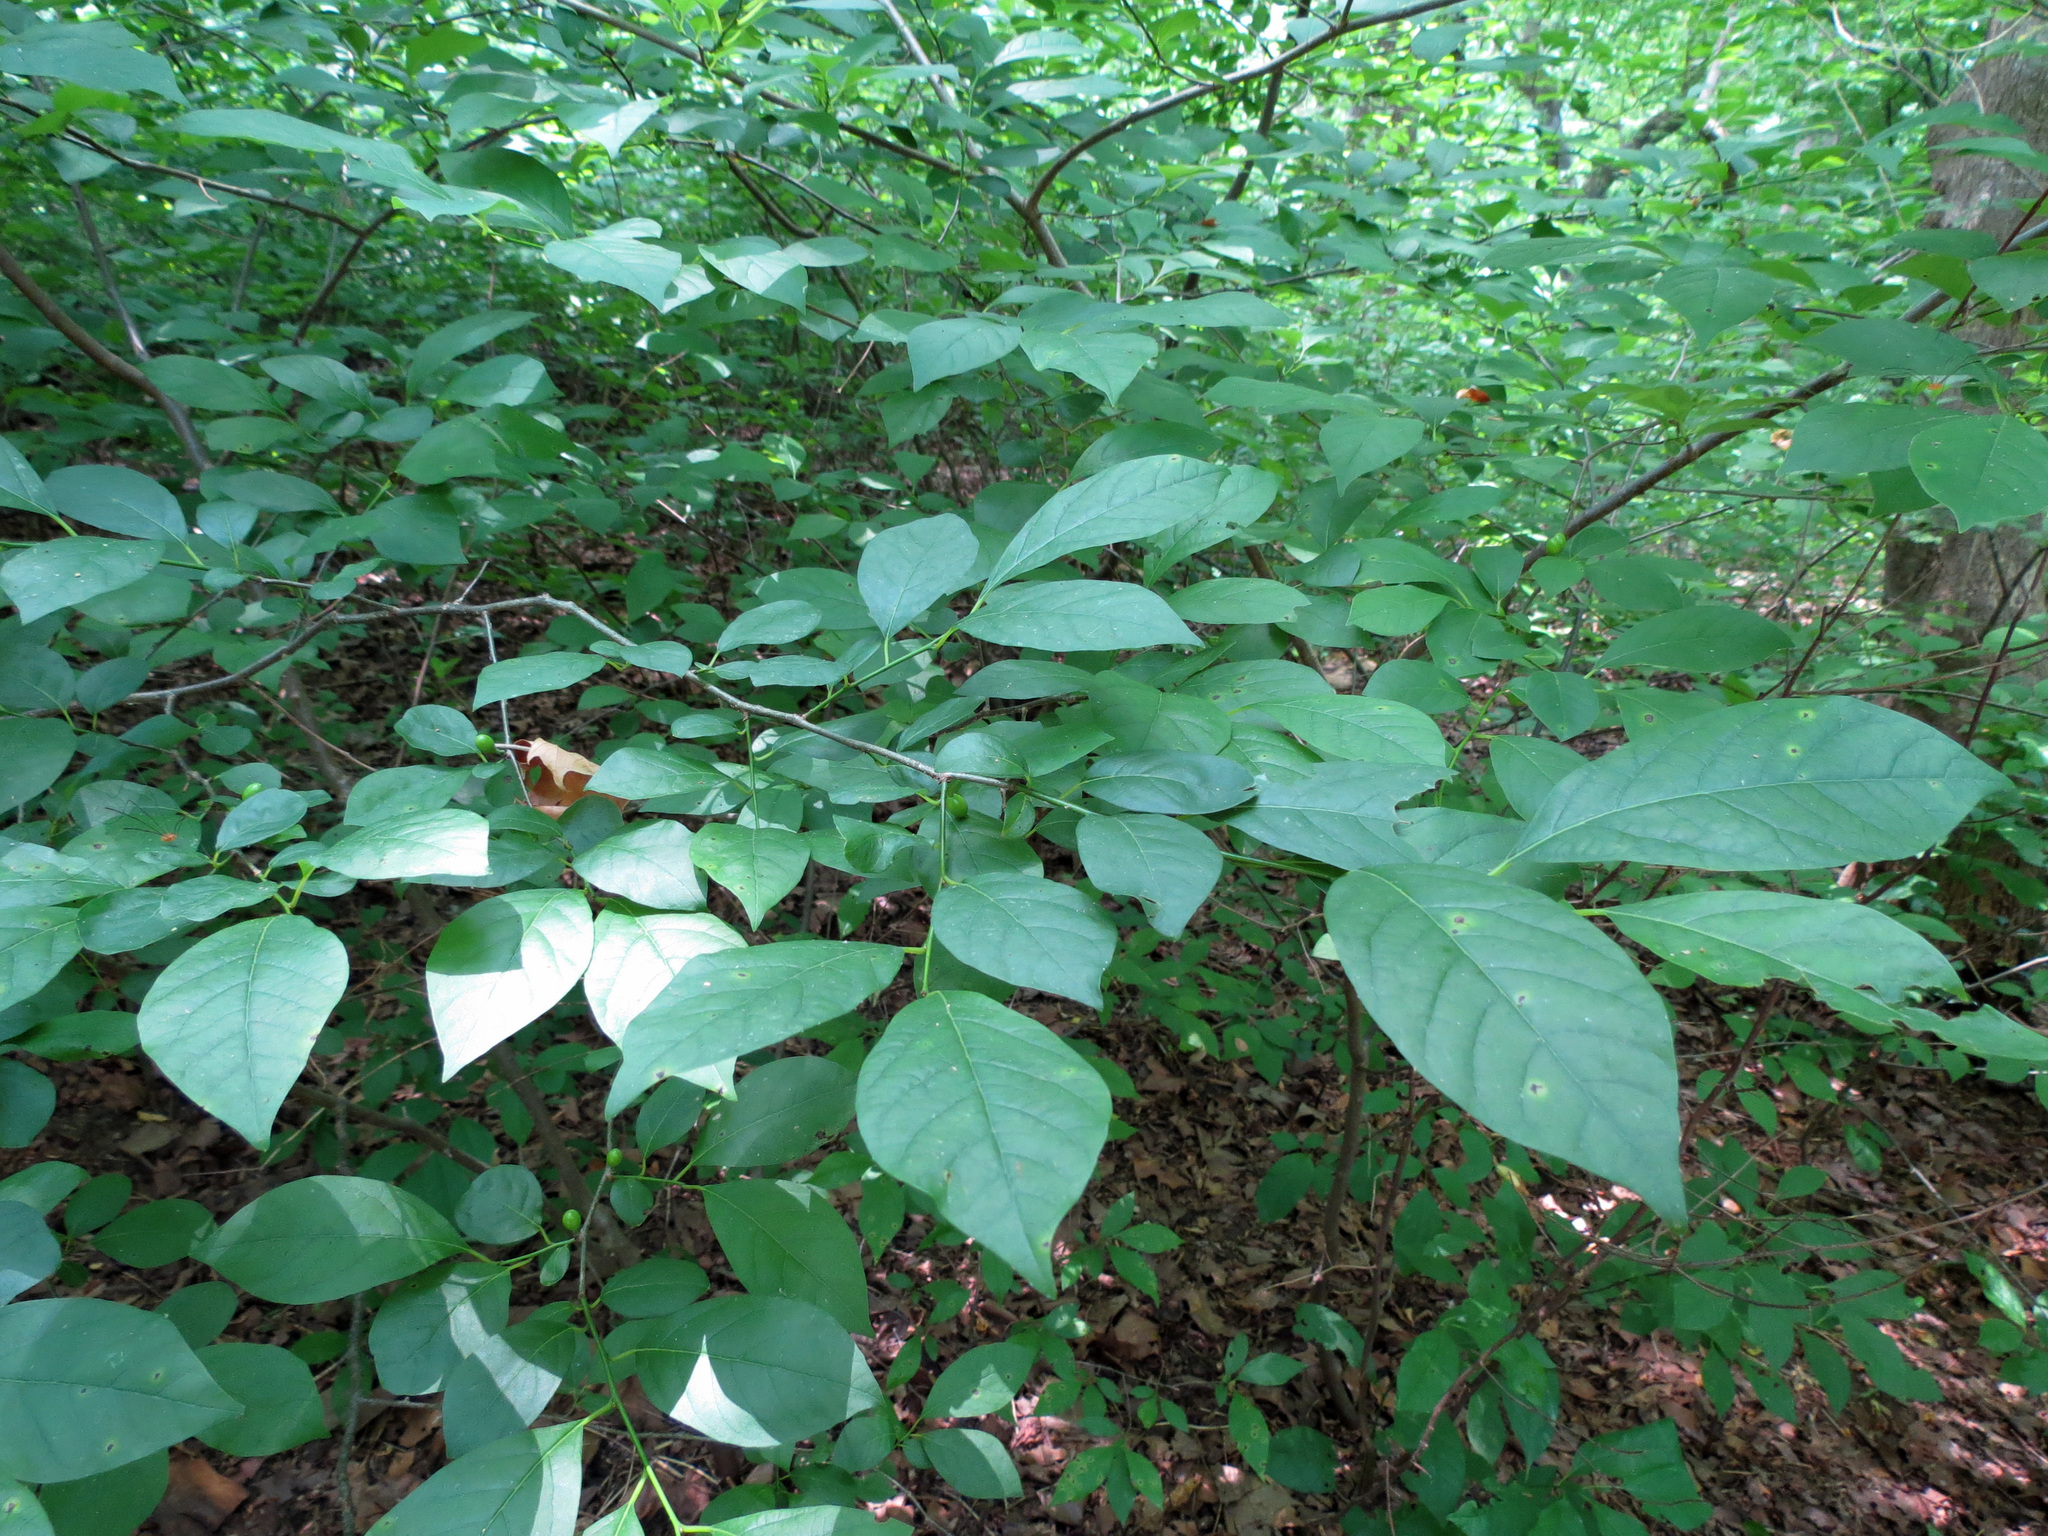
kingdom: Plantae
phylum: Tracheophyta
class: Magnoliopsida
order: Laurales
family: Lauraceae
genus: Lindera
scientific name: Lindera benzoin
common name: Spicebush
